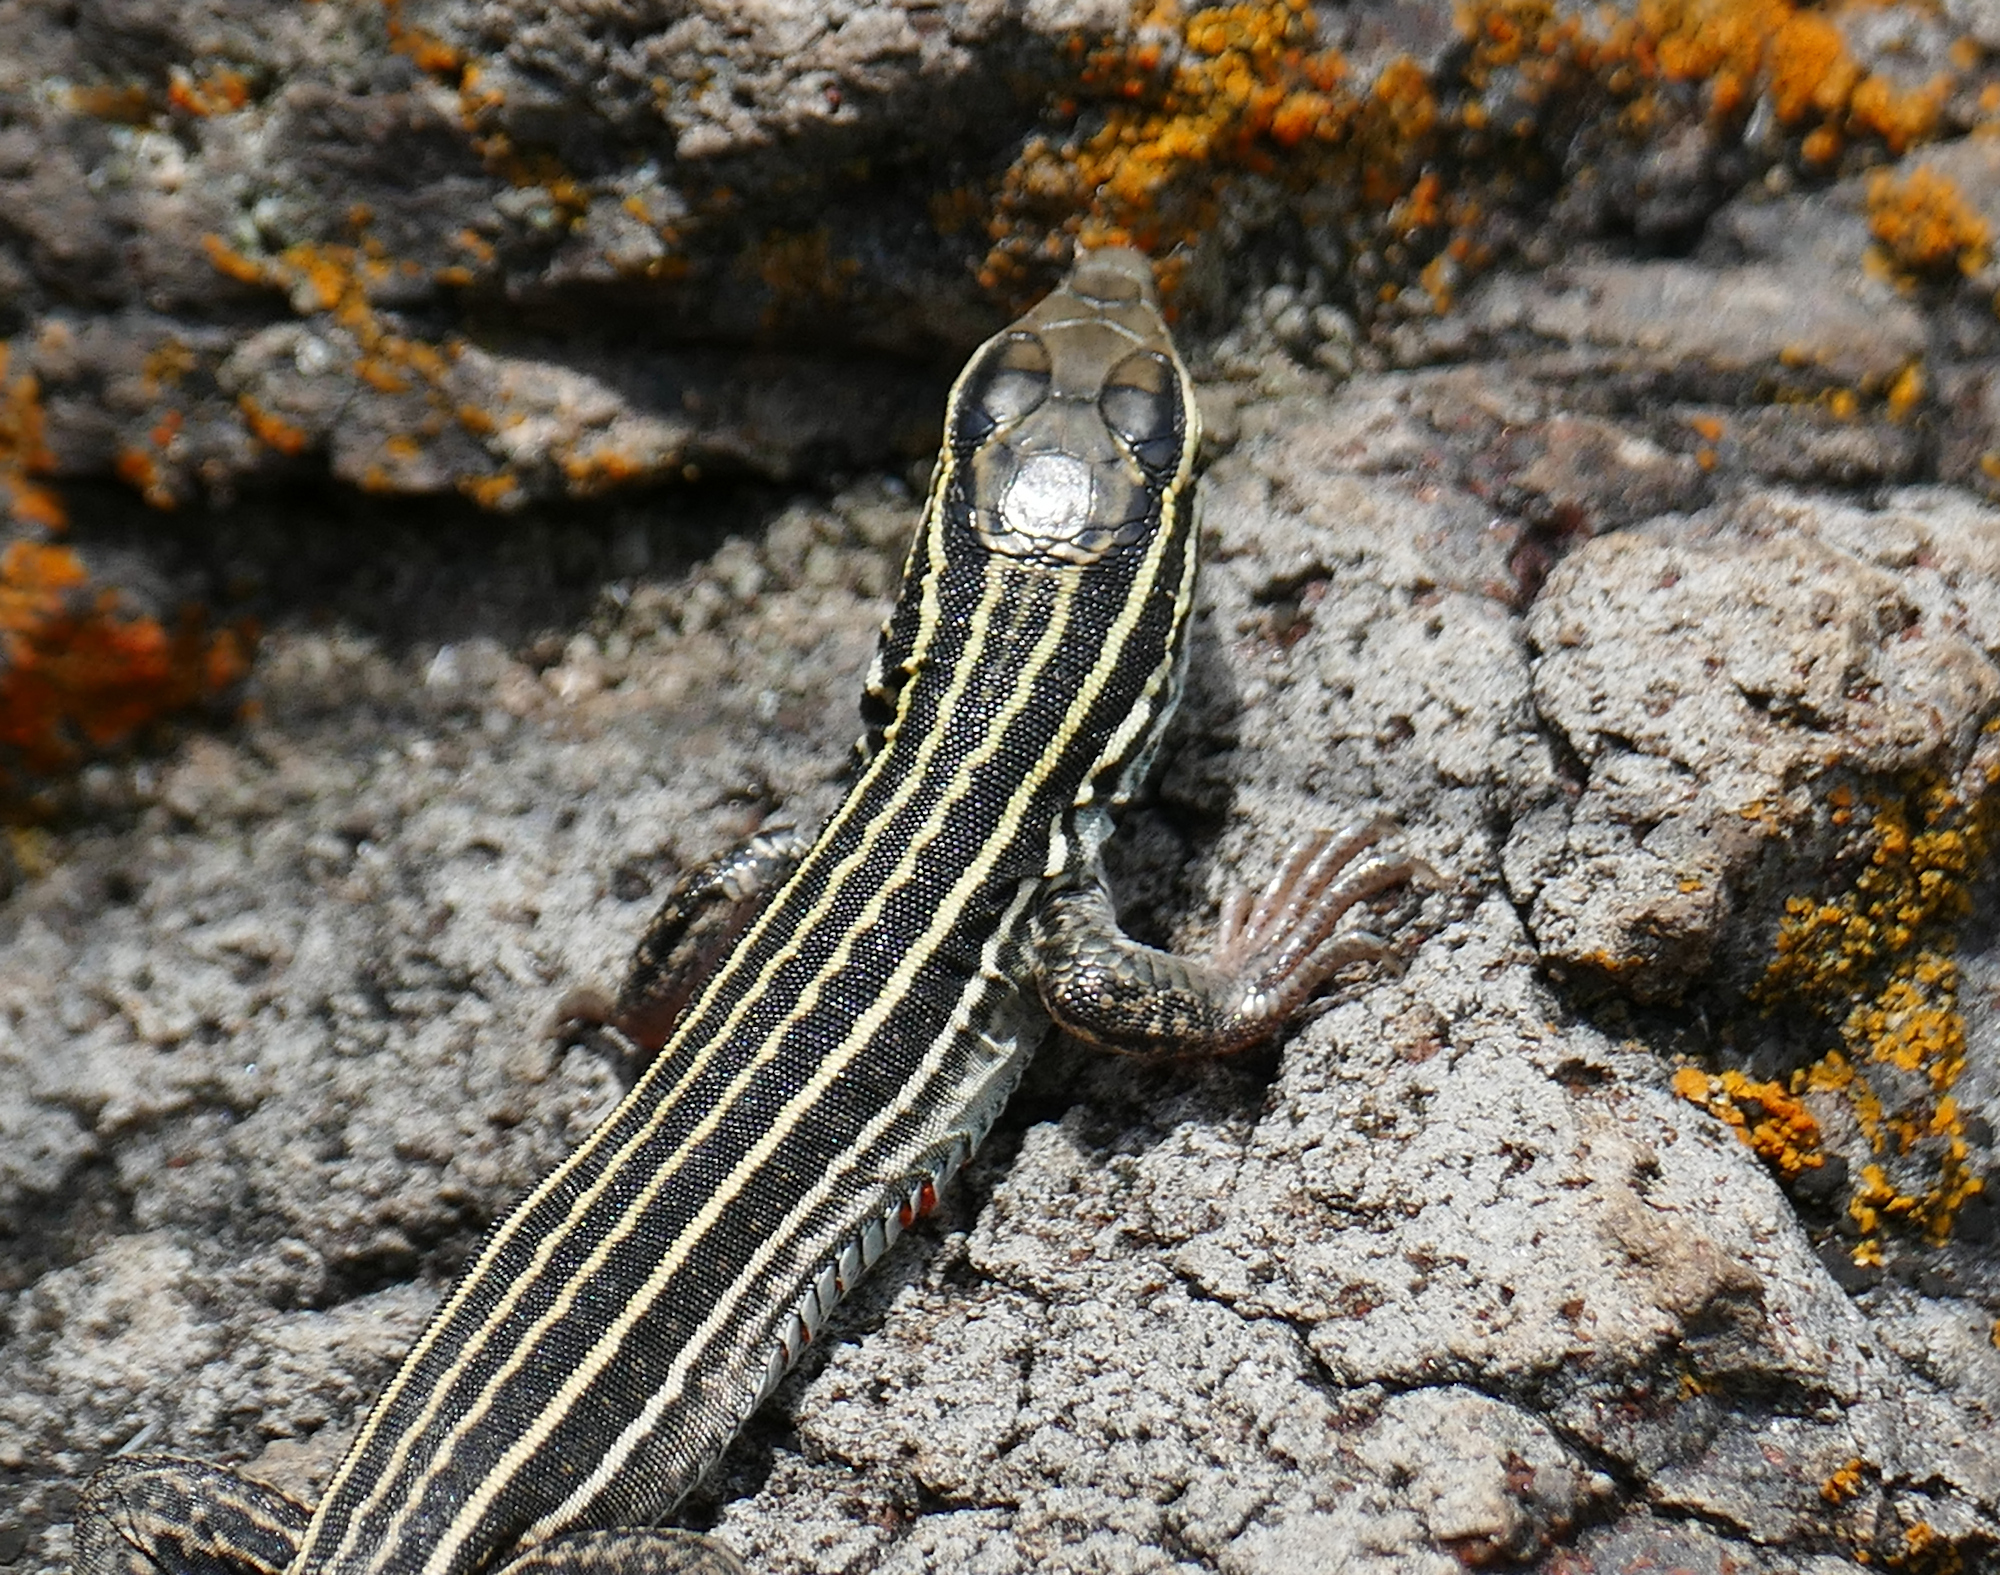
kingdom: Animalia
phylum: Chordata
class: Squamata
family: Teiidae
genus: Aspidoscelis
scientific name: Aspidoscelis uniparens
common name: Desert grassland whiptail
